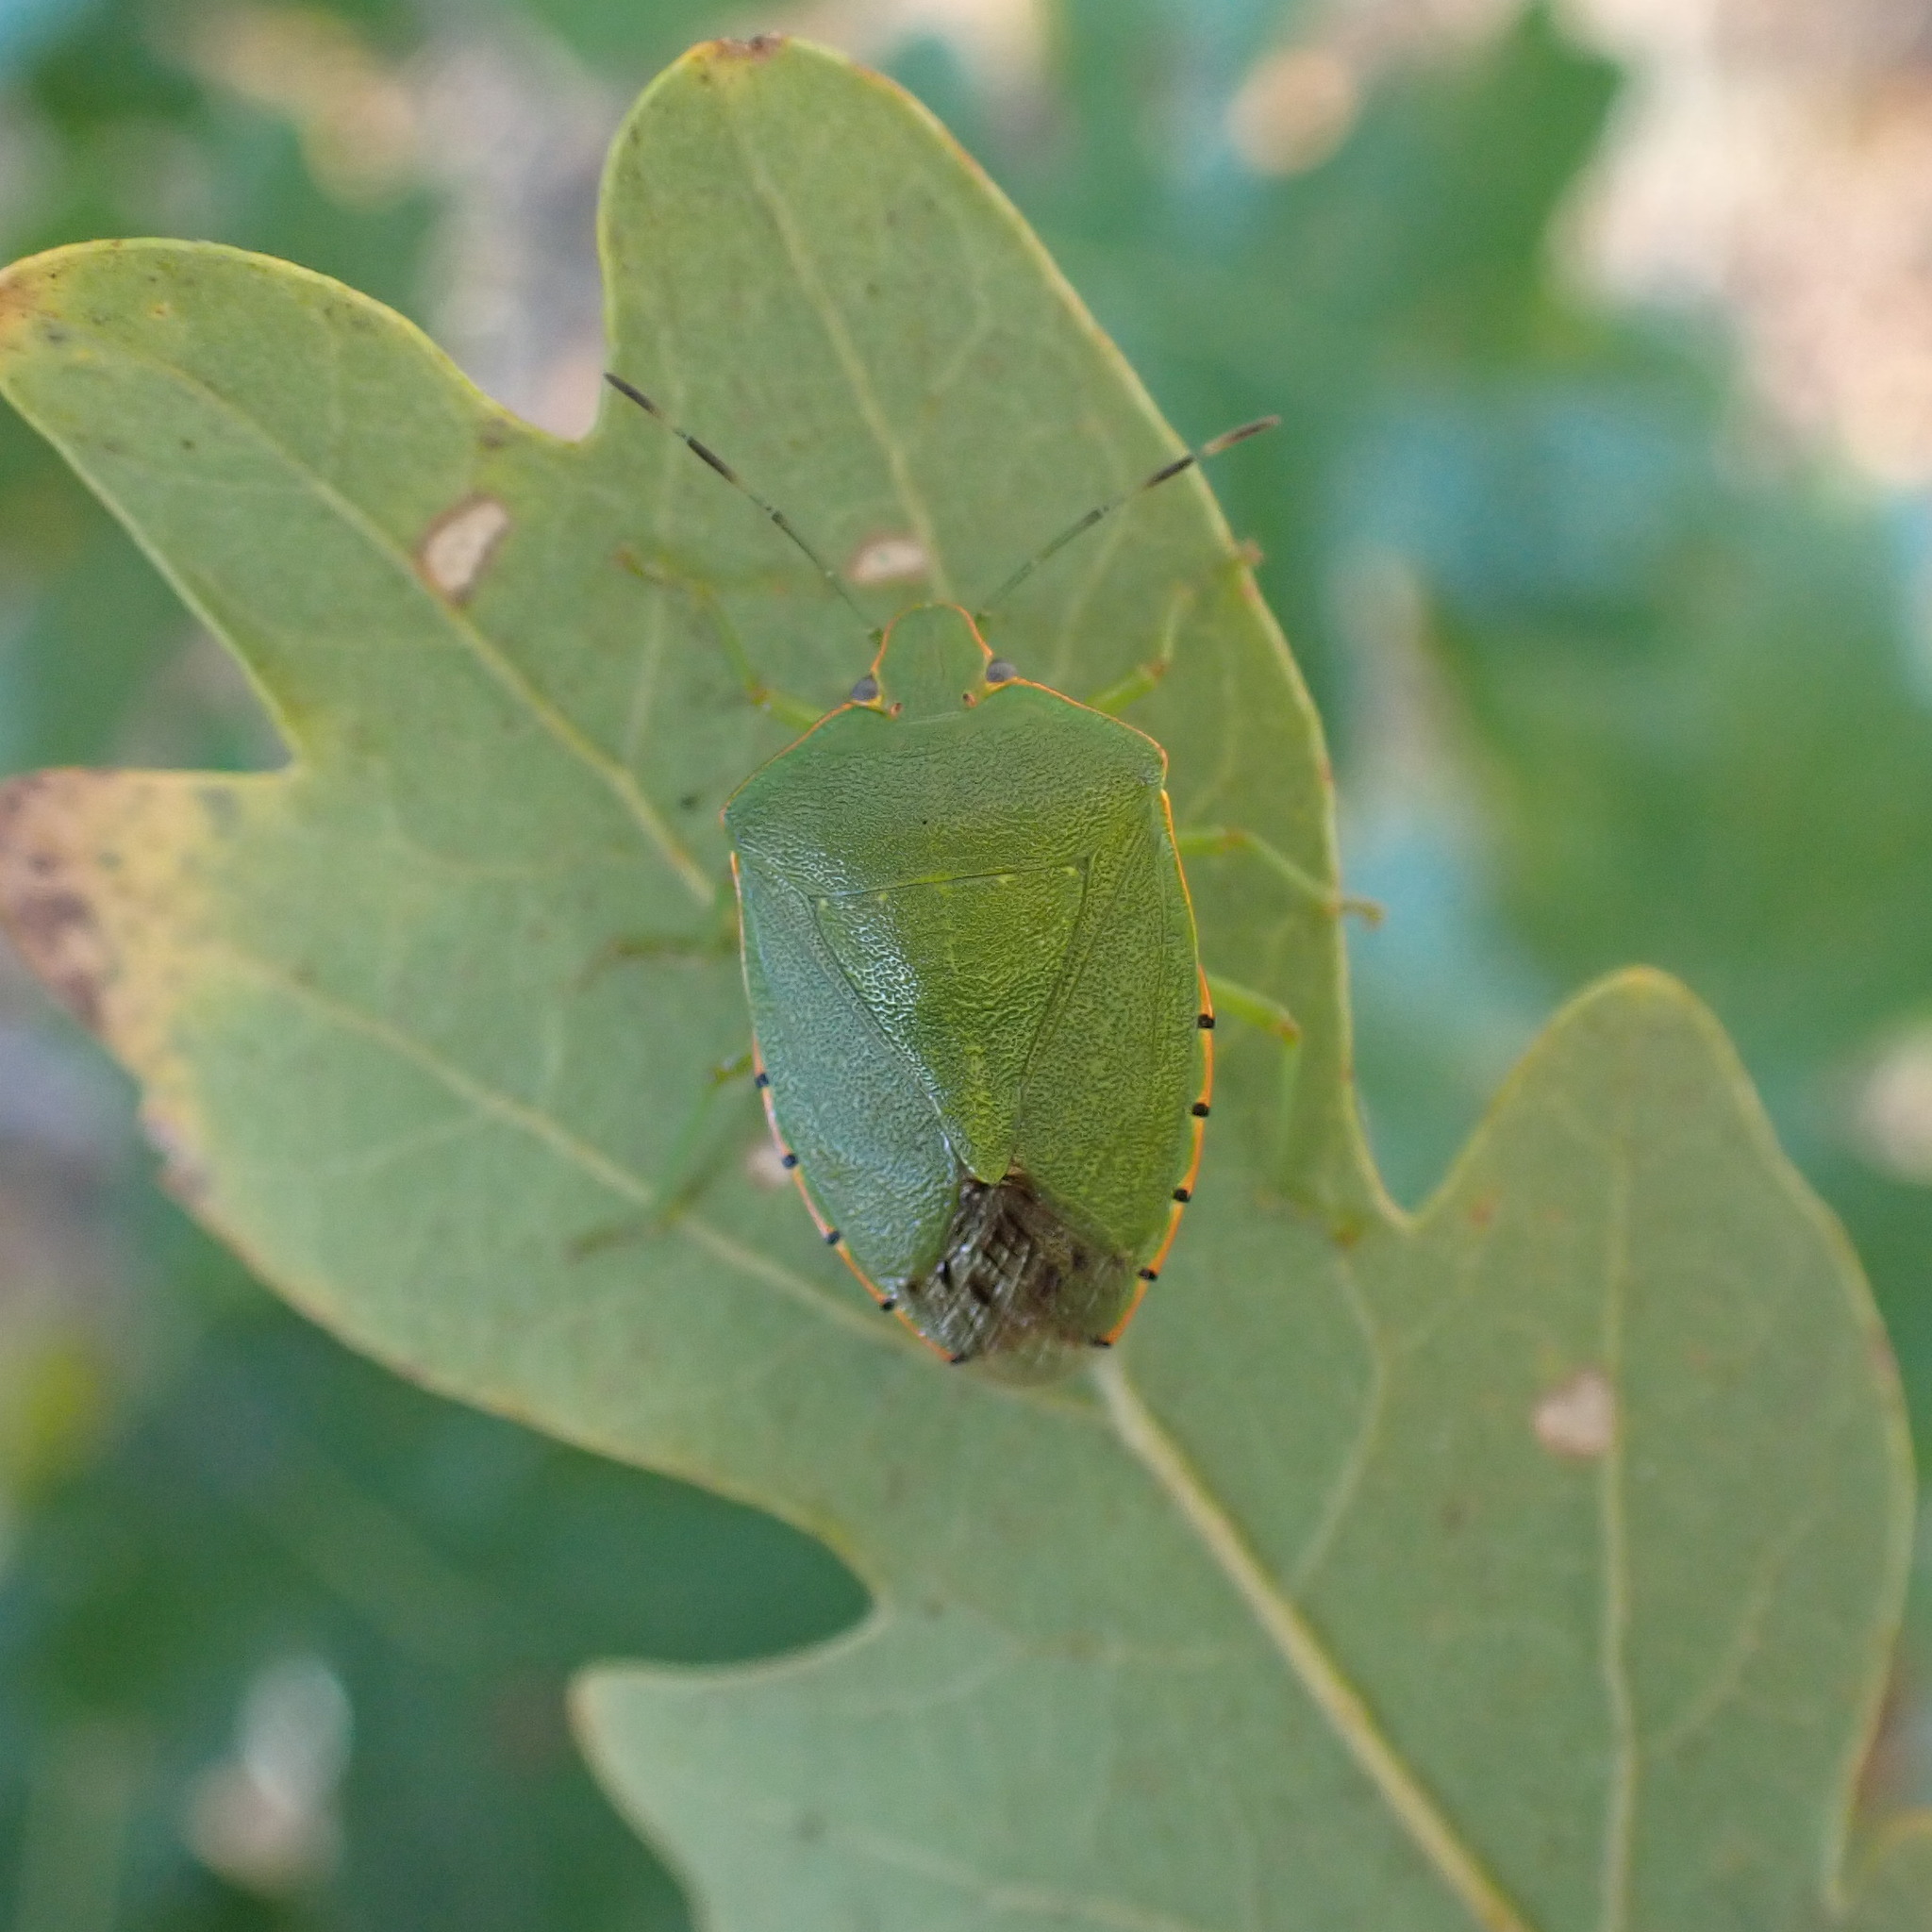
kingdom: Animalia
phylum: Arthropoda
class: Insecta
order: Hemiptera
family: Pentatomidae
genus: Chinavia
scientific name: Chinavia hilaris
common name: Green stink bug
